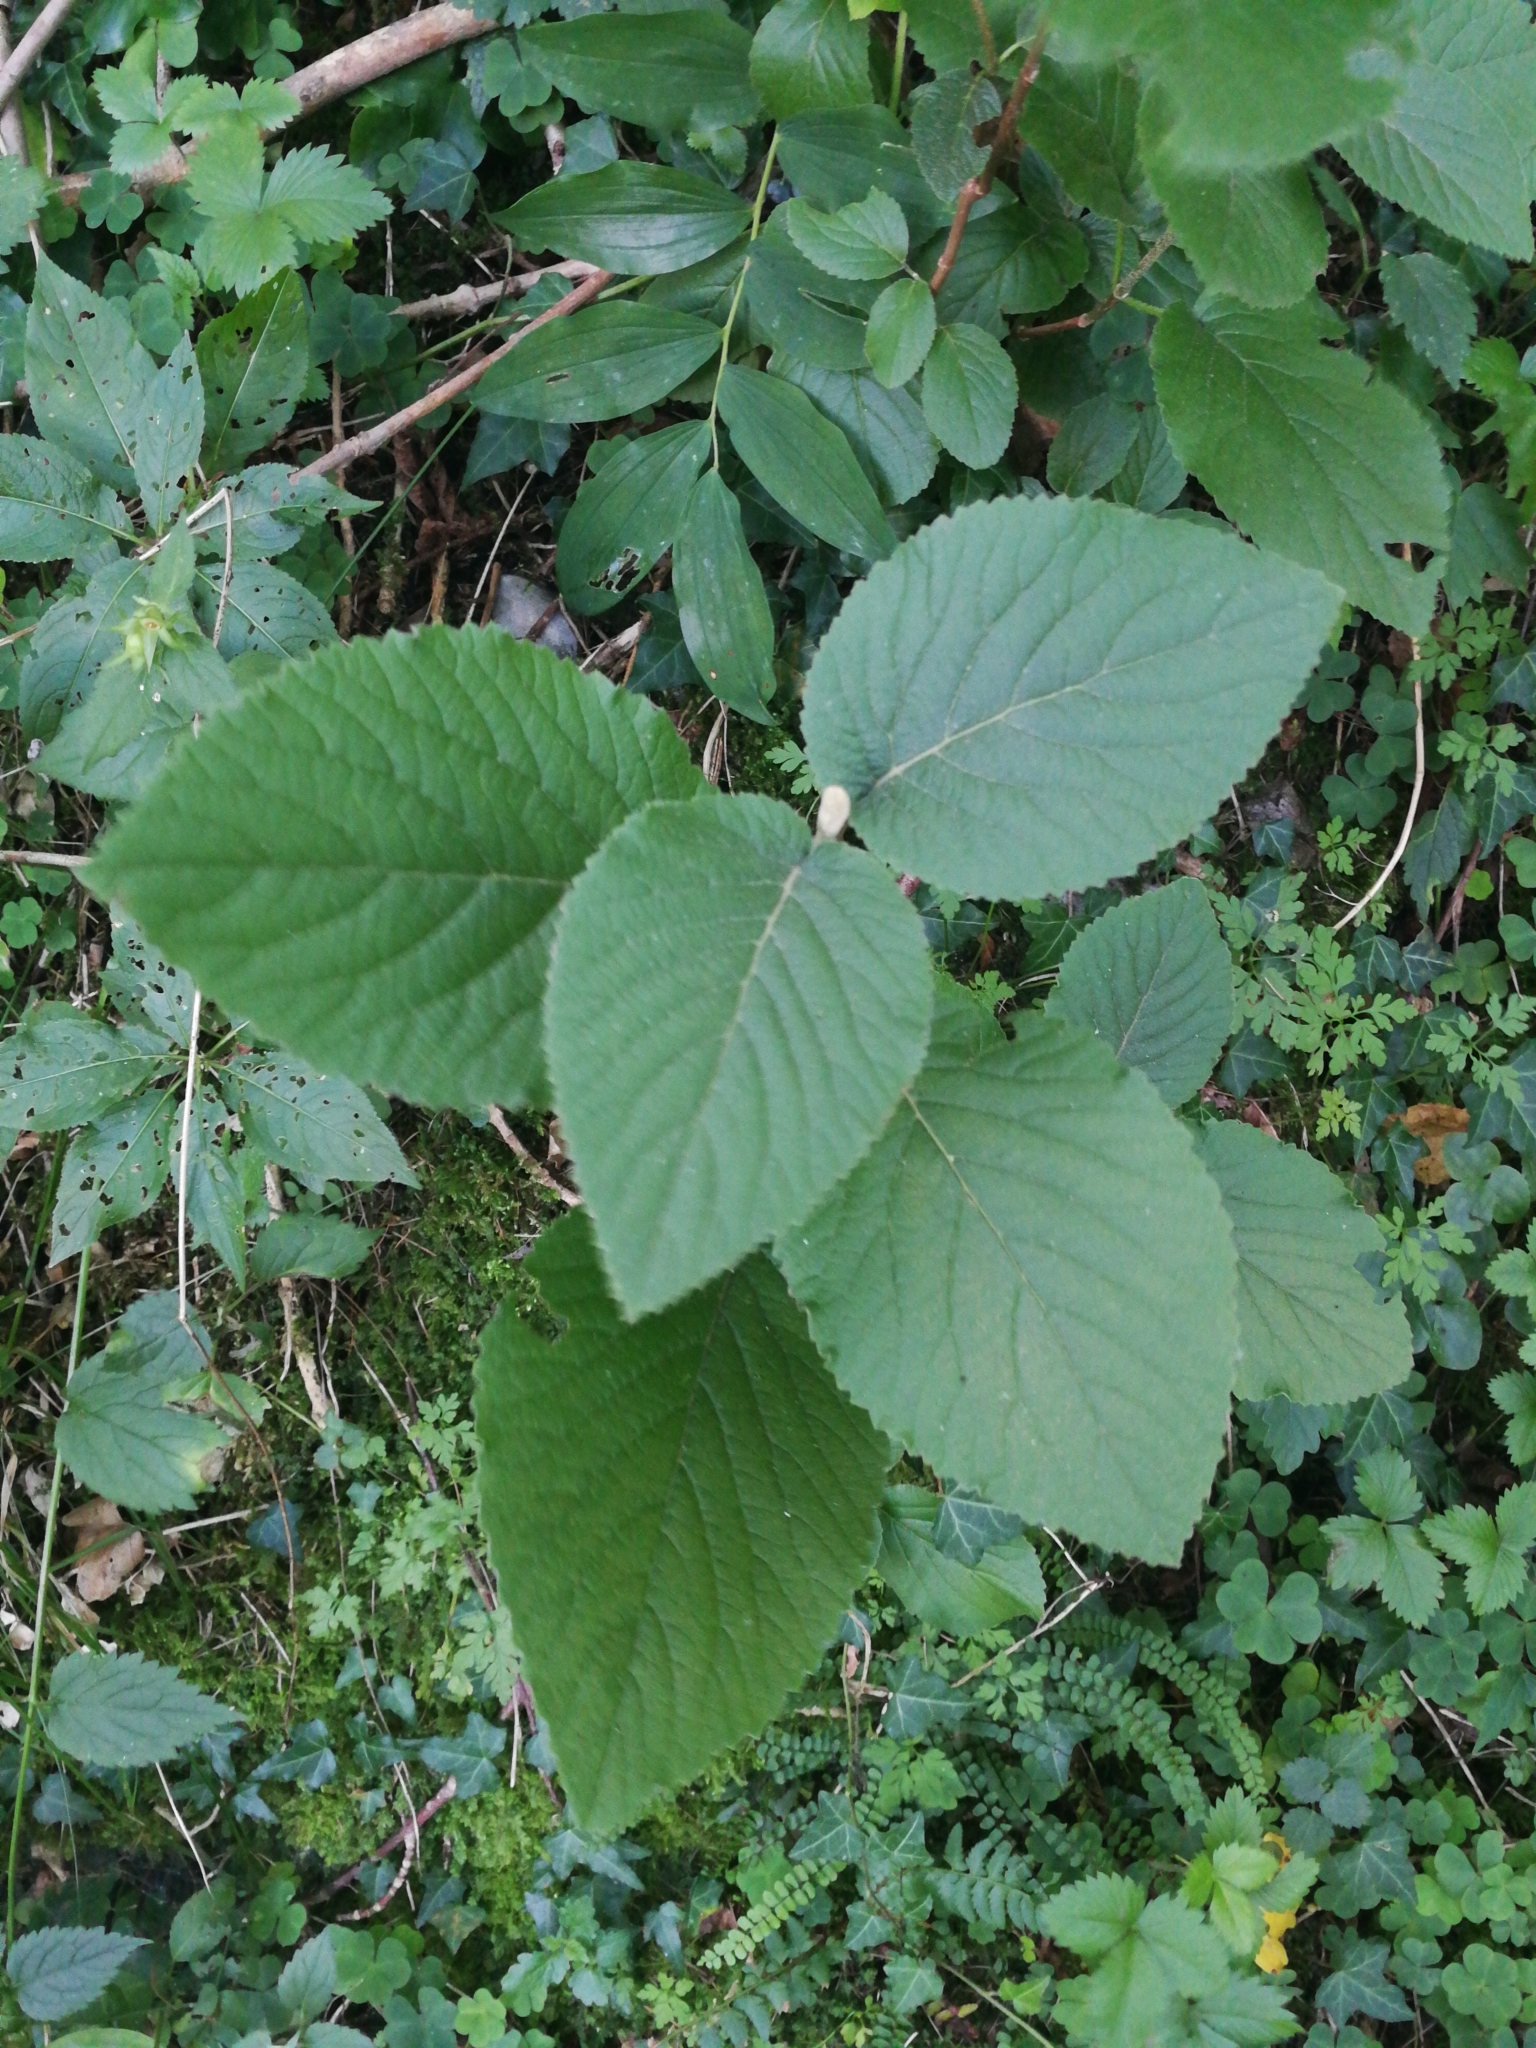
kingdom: Plantae
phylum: Tracheophyta
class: Magnoliopsida
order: Dipsacales
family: Viburnaceae
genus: Viburnum
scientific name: Viburnum lantana
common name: Wayfaring tree
